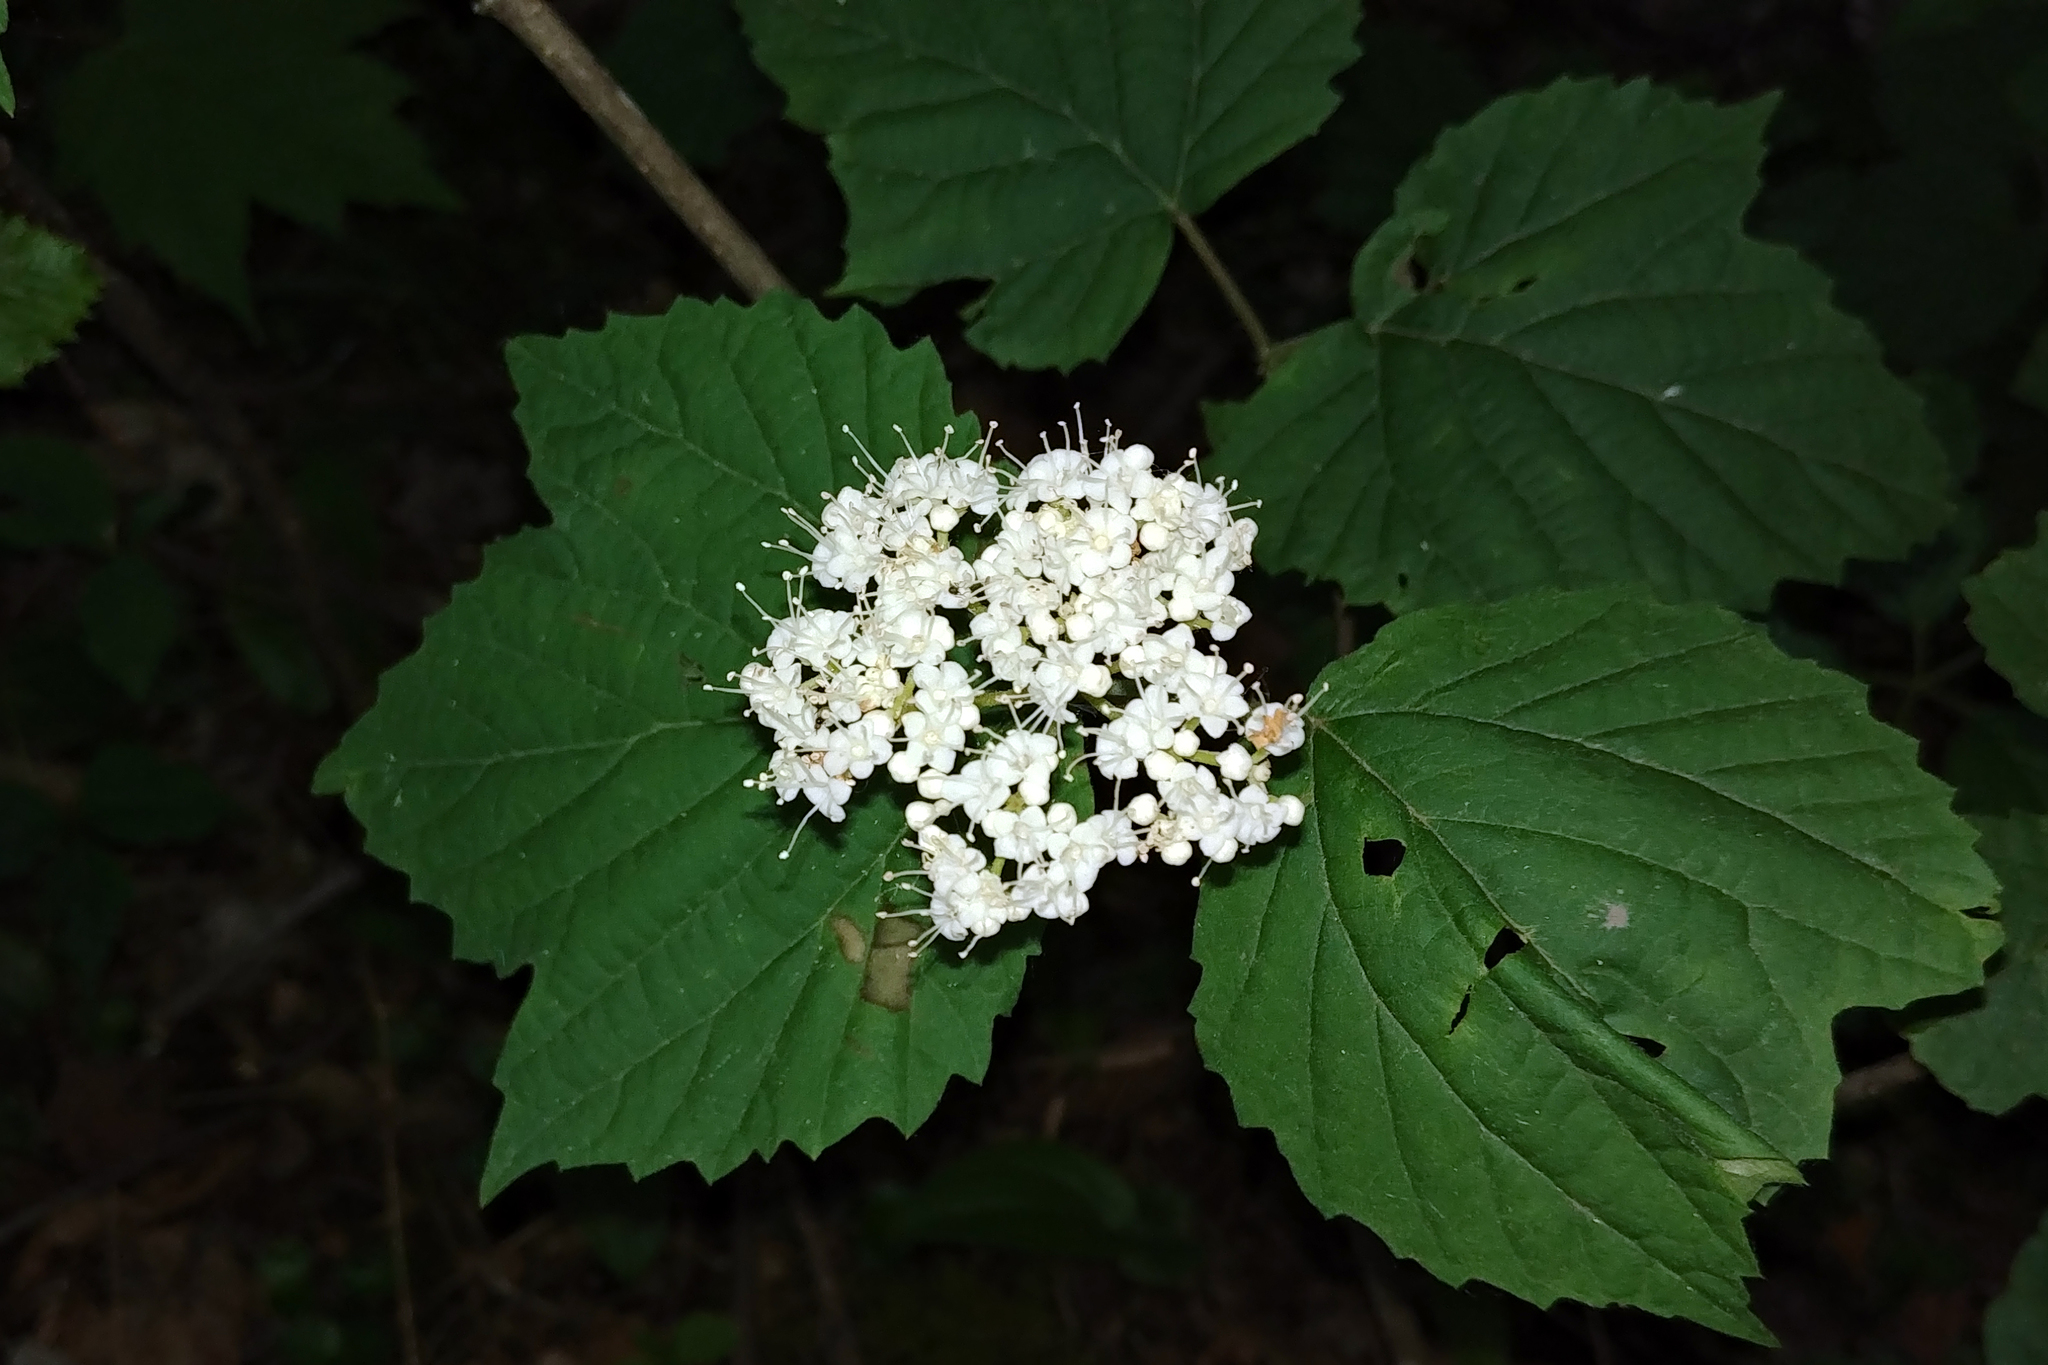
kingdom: Plantae
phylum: Tracheophyta
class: Magnoliopsida
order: Dipsacales
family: Viburnaceae
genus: Viburnum
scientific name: Viburnum acerifolium
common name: Dockmackie
